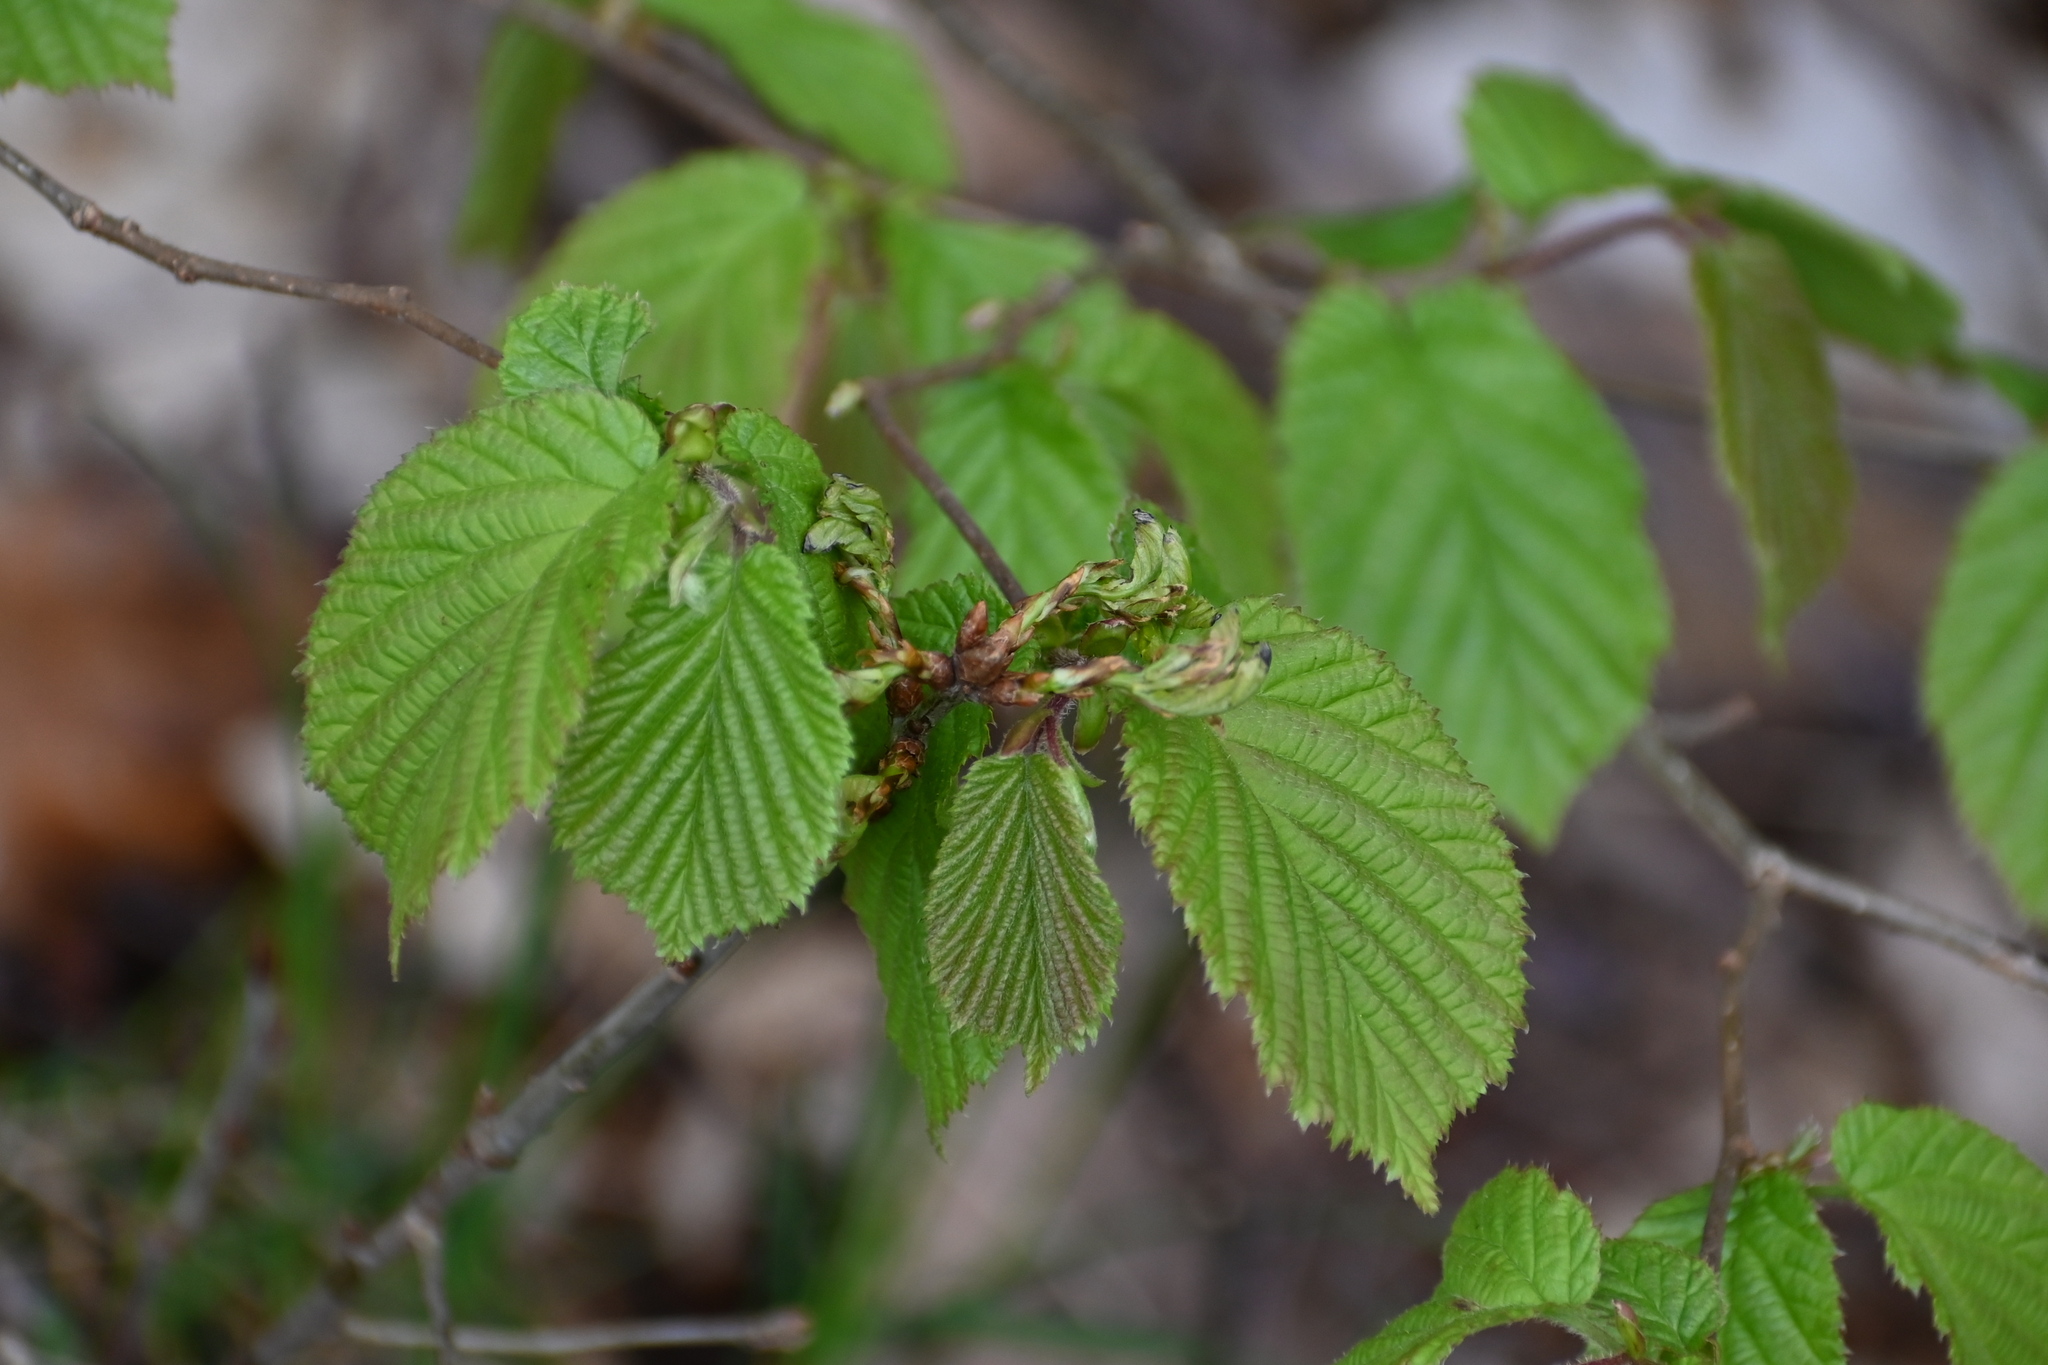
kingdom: Plantae
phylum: Tracheophyta
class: Magnoliopsida
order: Fagales
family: Betulaceae
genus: Corylus
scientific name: Corylus avellana
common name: European hazel
